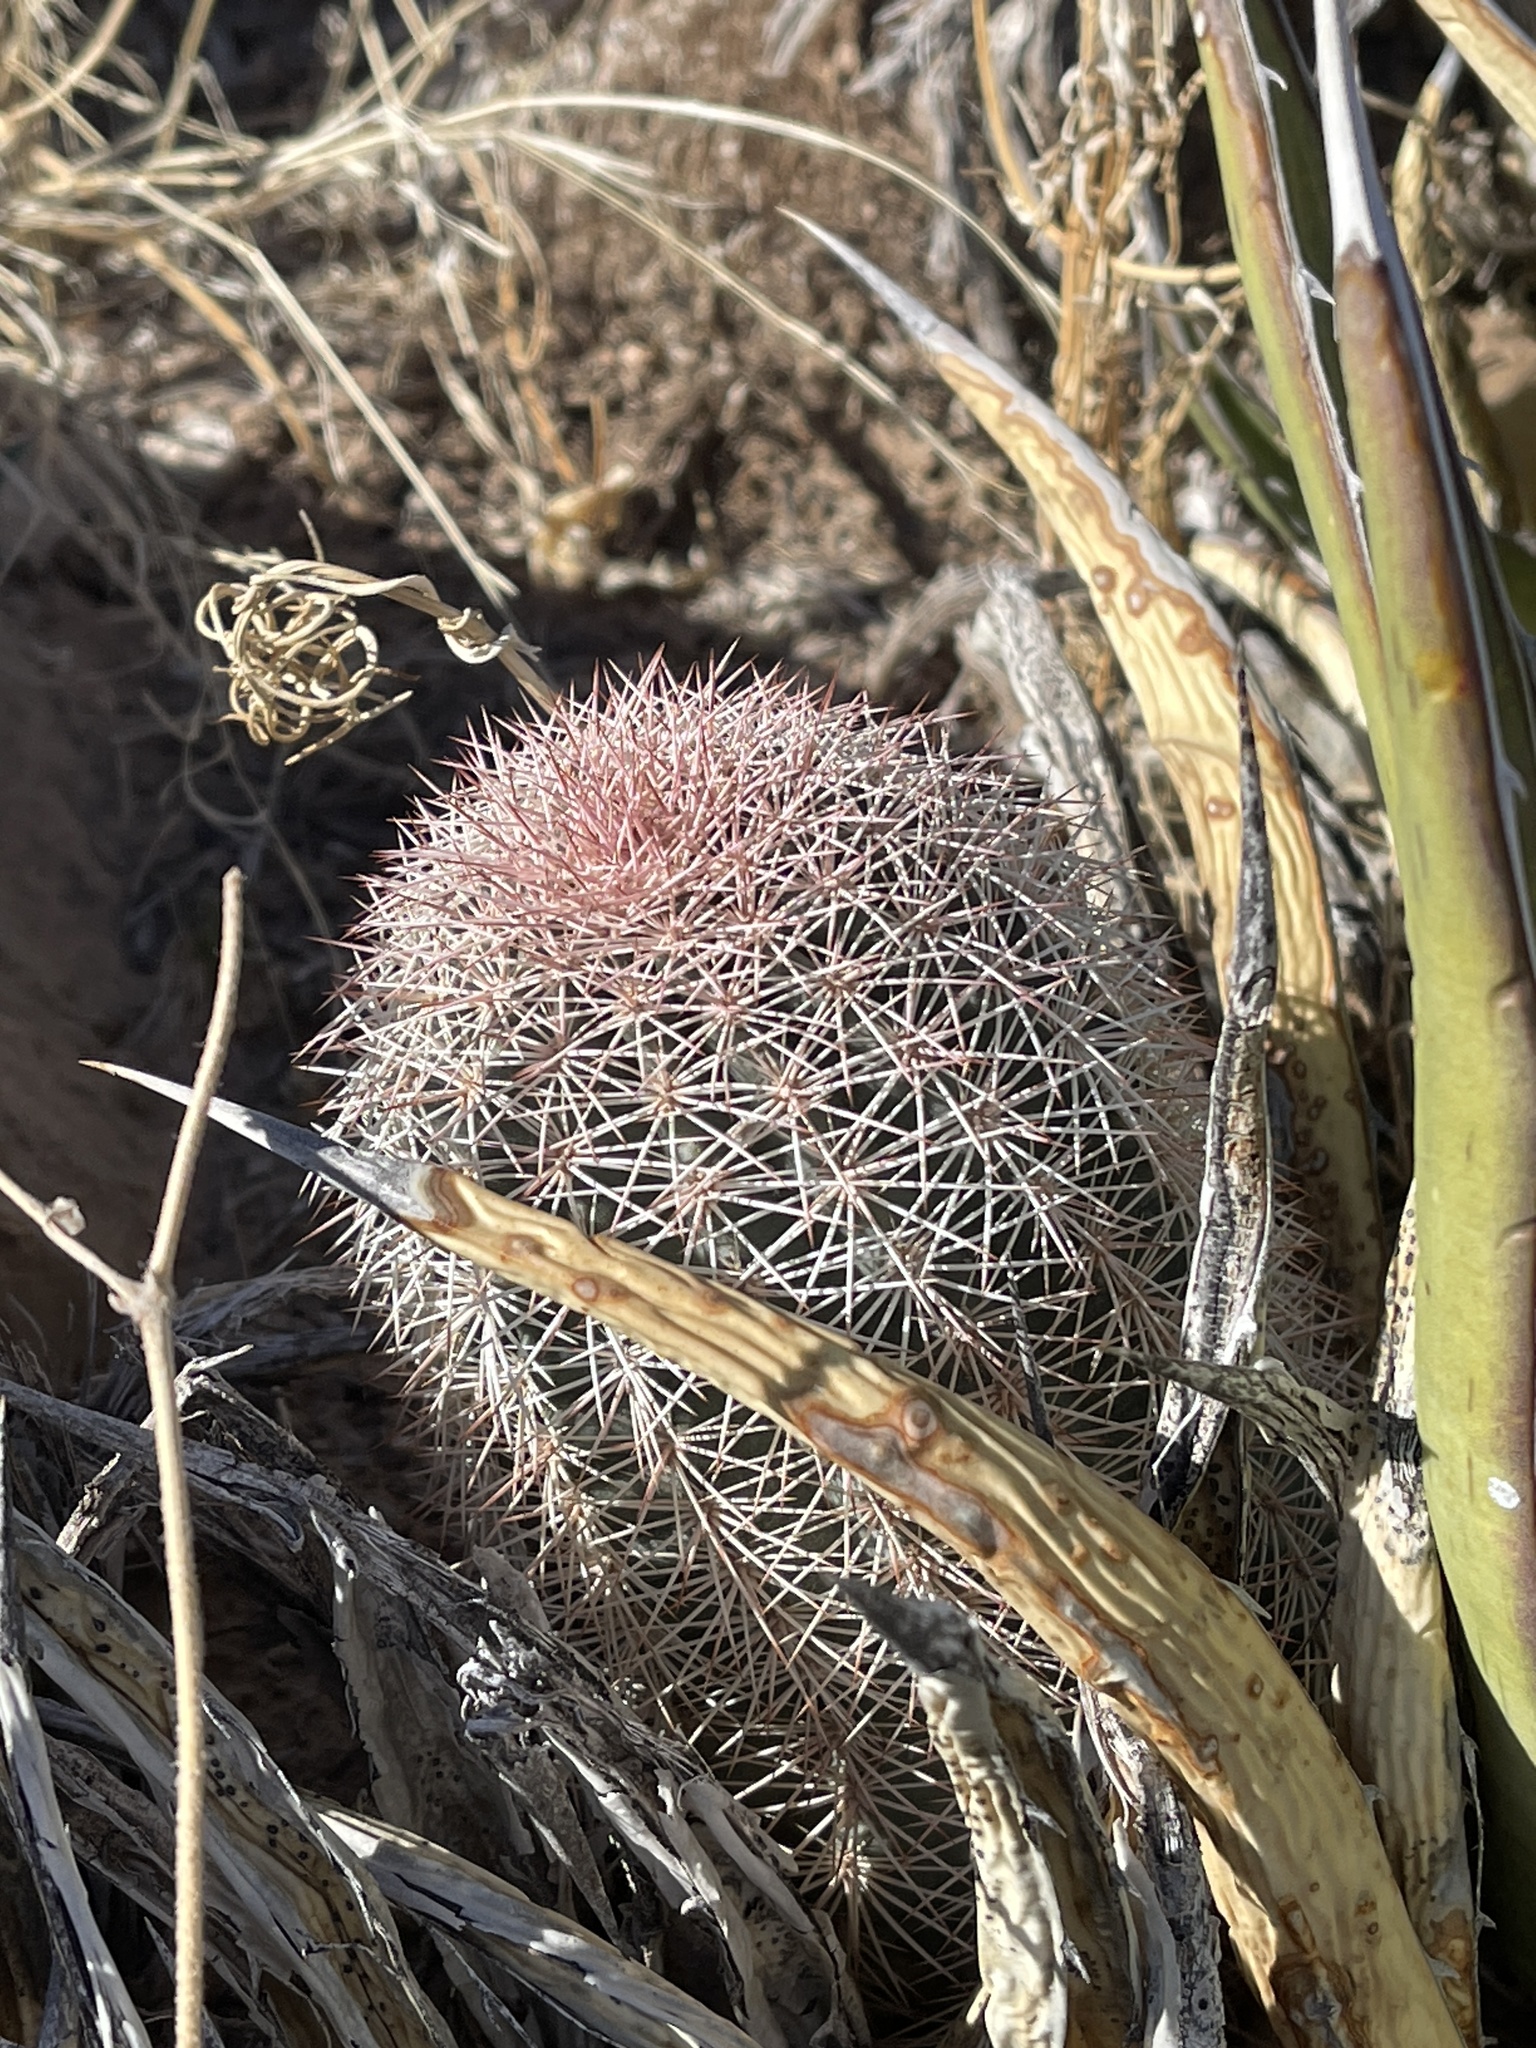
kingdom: Plantae
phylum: Tracheophyta
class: Magnoliopsida
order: Caryophyllales
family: Cactaceae
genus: Echinocereus
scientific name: Echinocereus dasyacanthus
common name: Spiny hedgehog cactus
